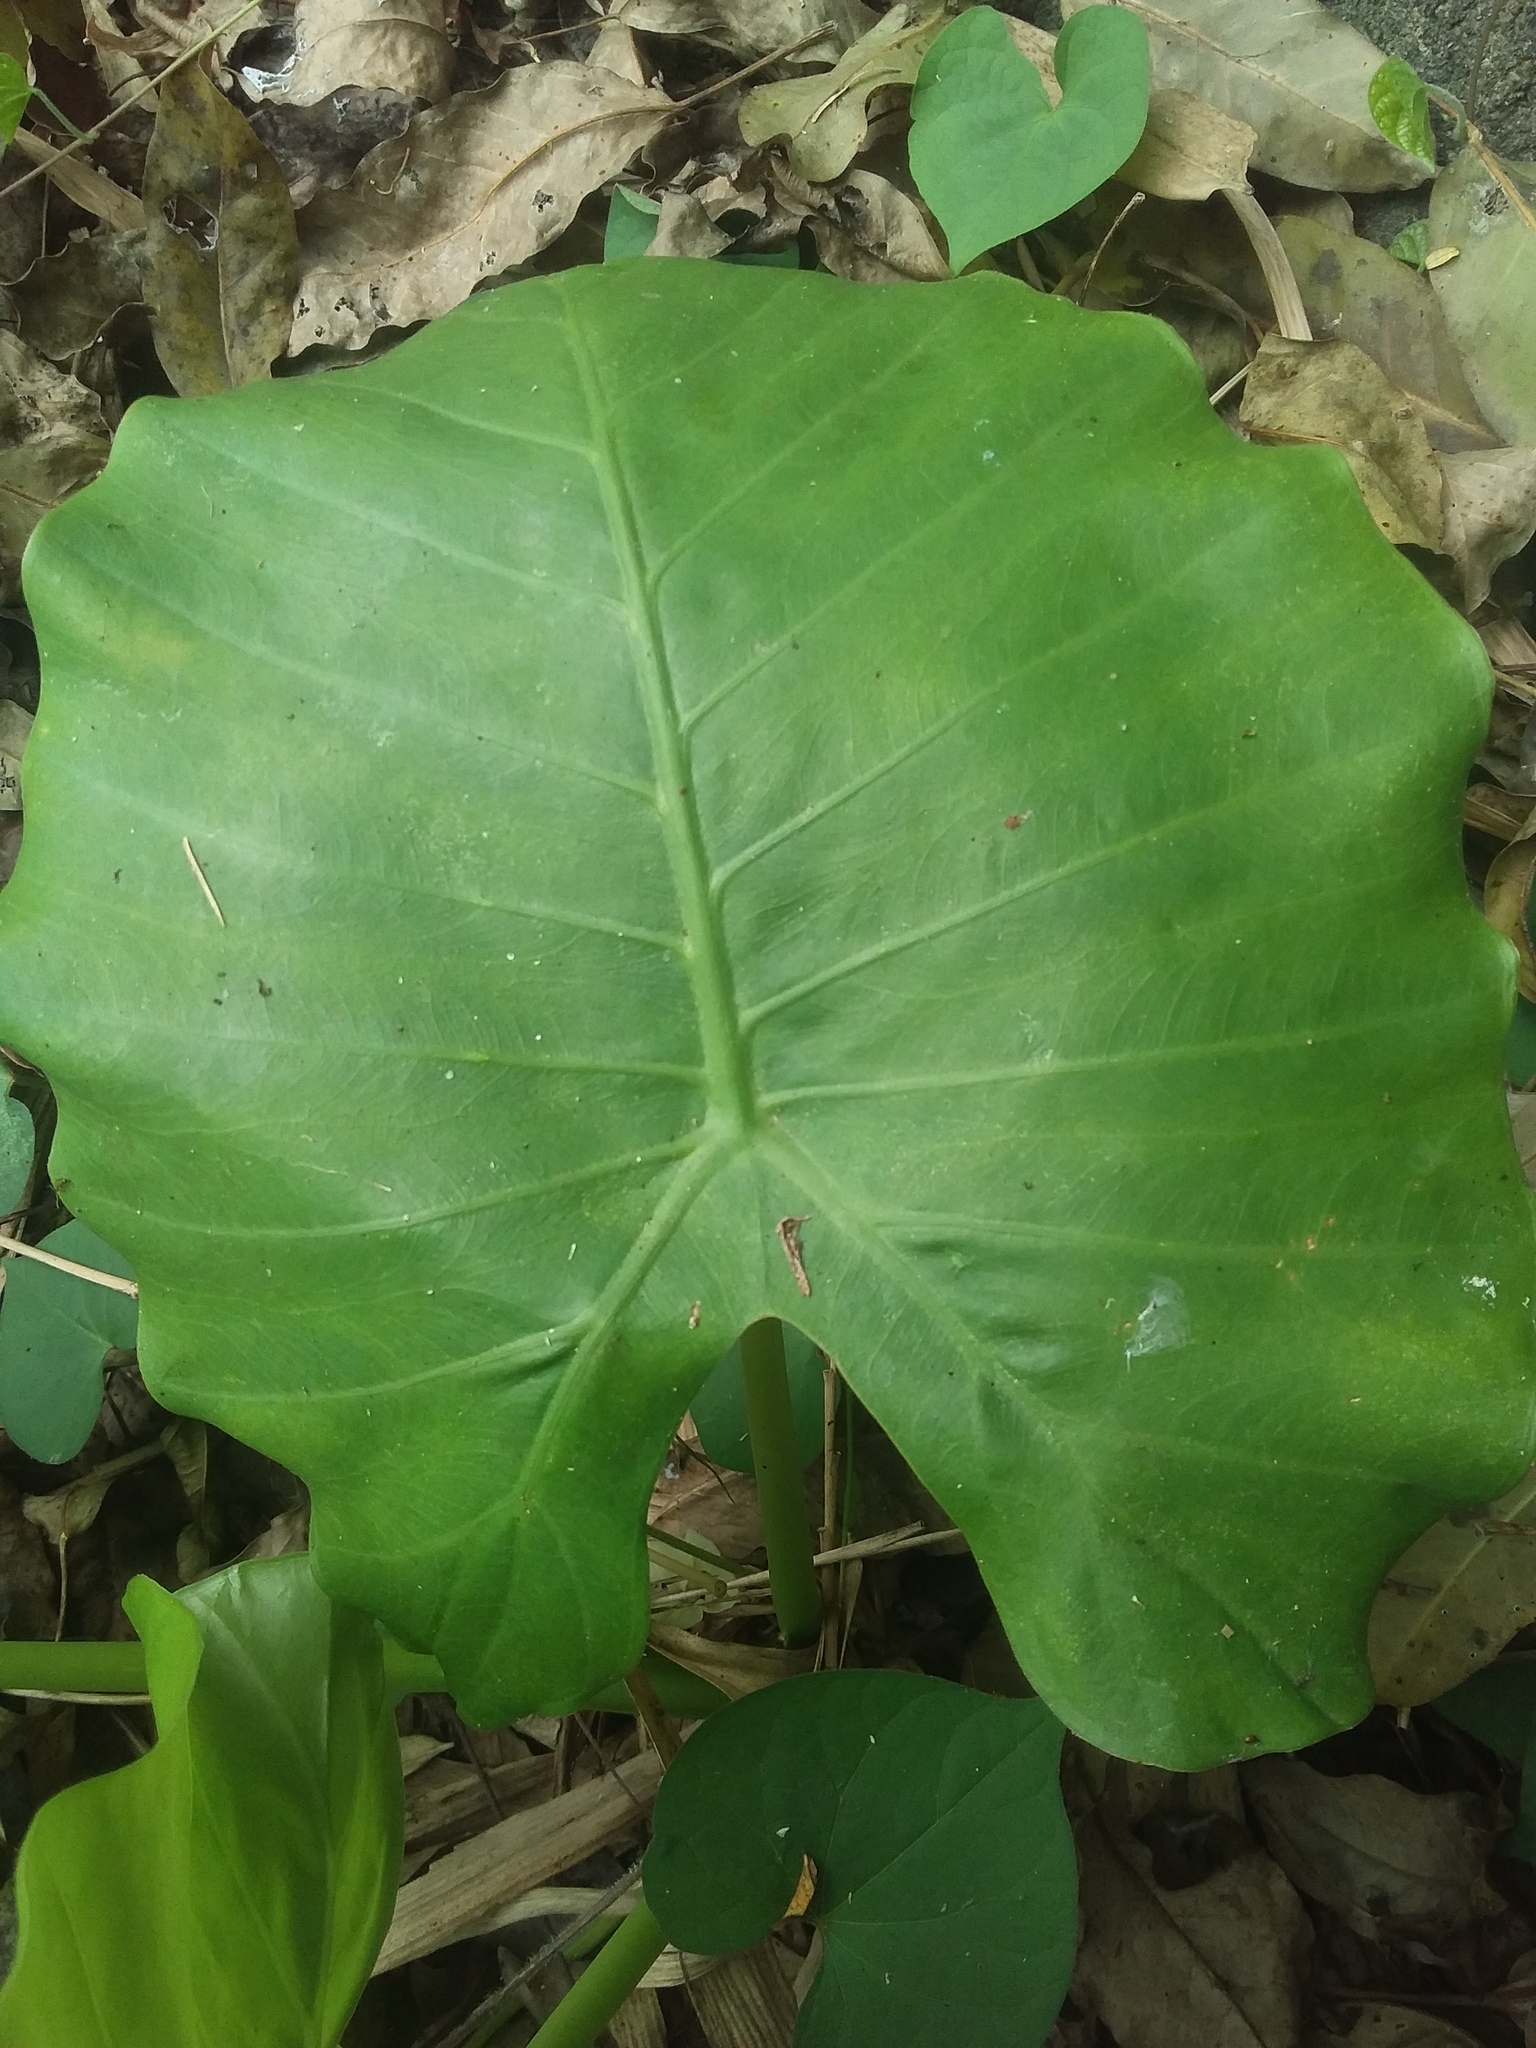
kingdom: Plantae
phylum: Tracheophyta
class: Liliopsida
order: Alismatales
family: Araceae
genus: Alocasia
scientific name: Alocasia odora
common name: Asian taro
